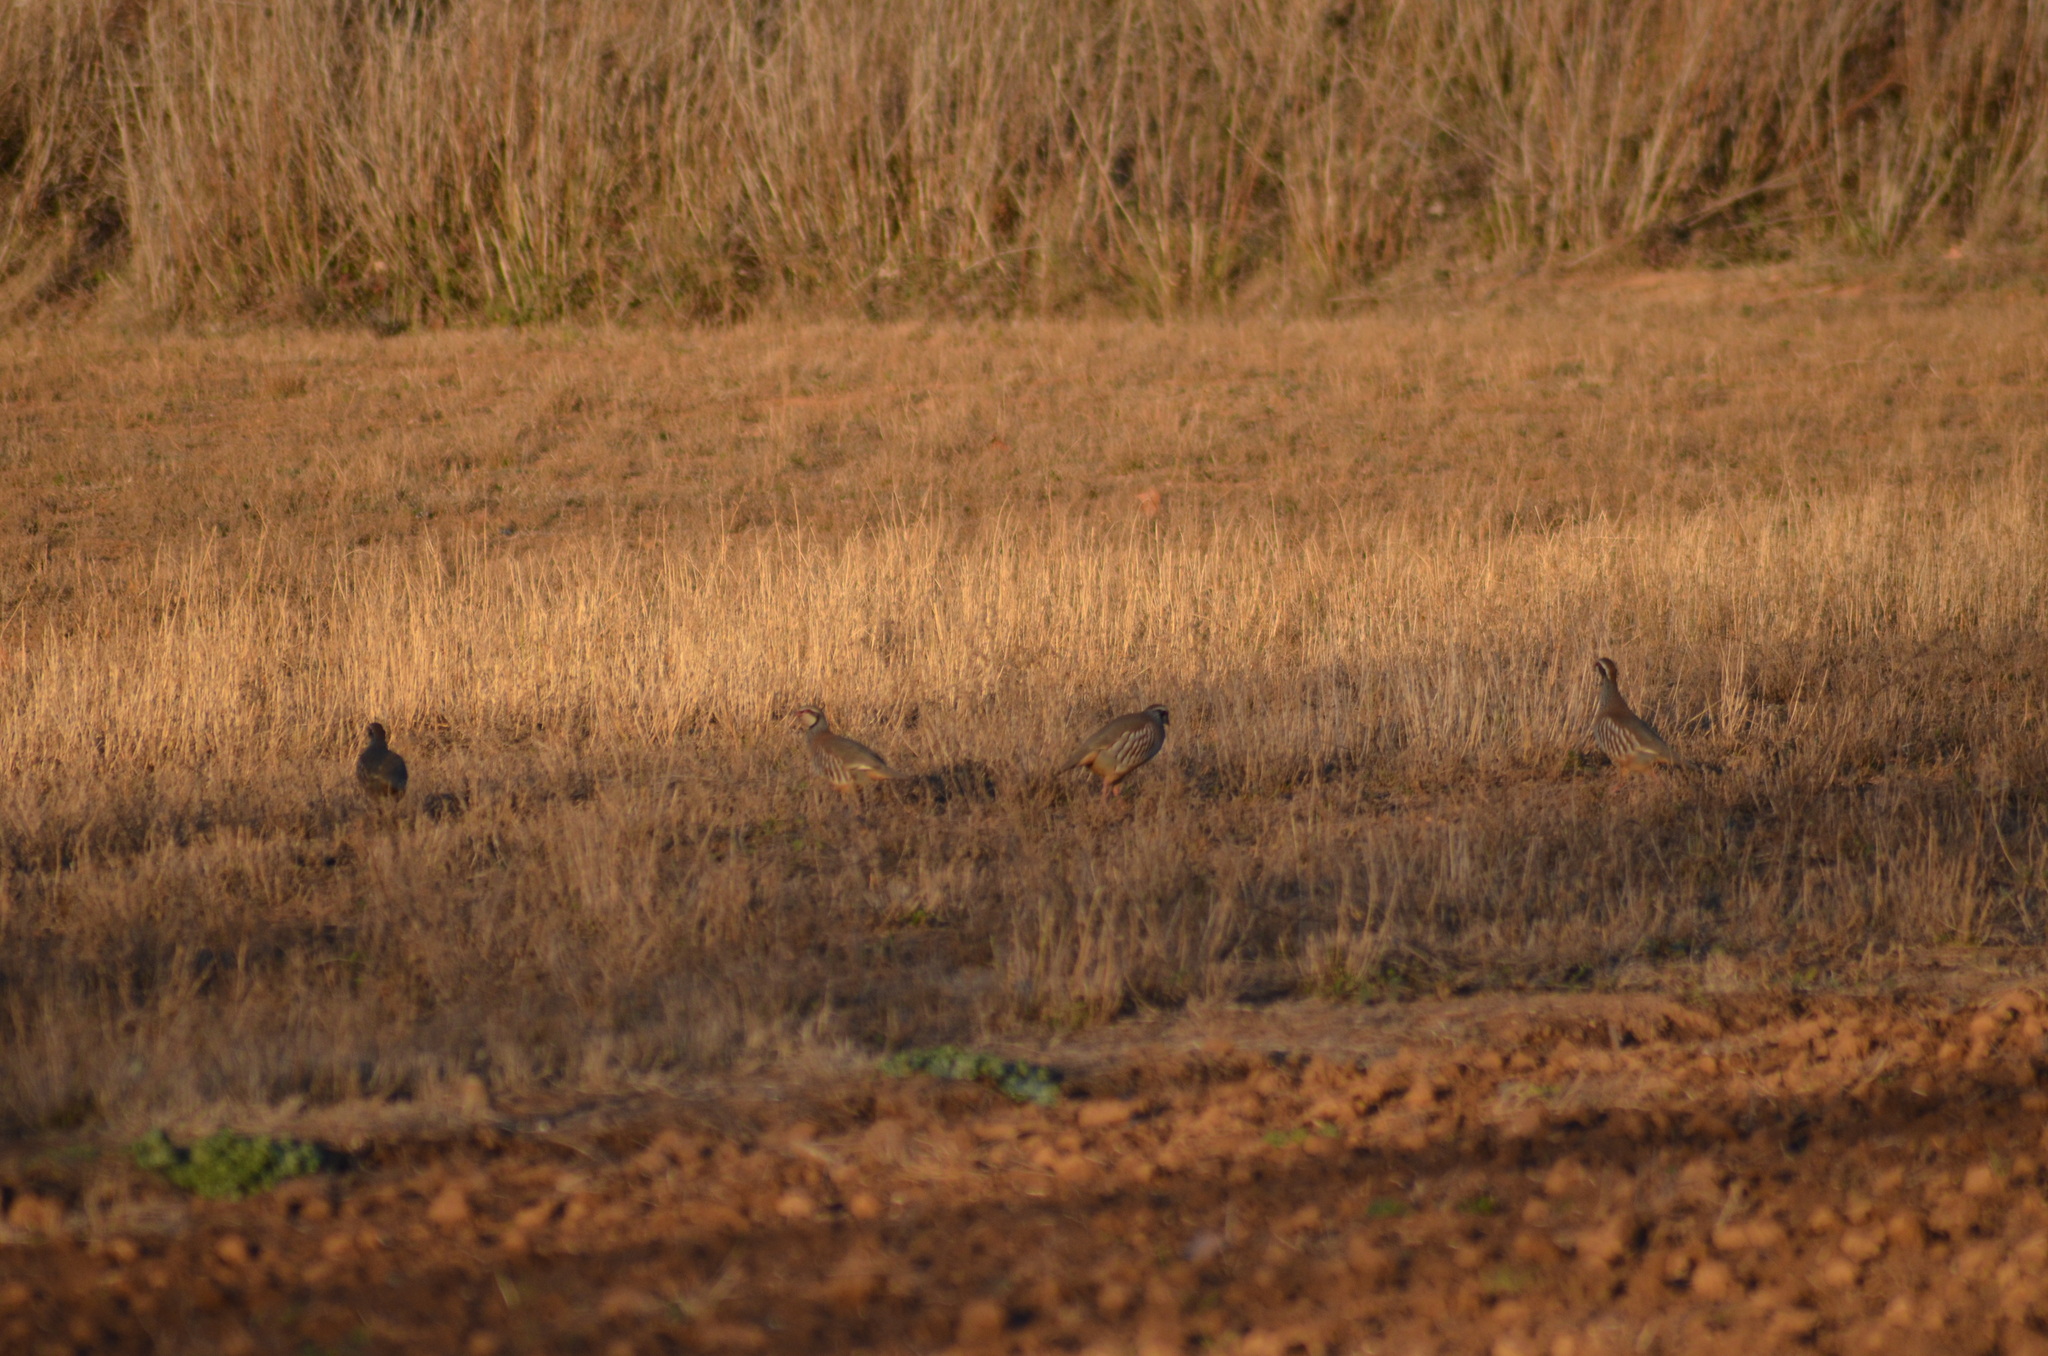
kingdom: Animalia
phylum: Chordata
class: Aves
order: Galliformes
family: Phasianidae
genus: Alectoris
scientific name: Alectoris rufa
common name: Red-legged partridge
